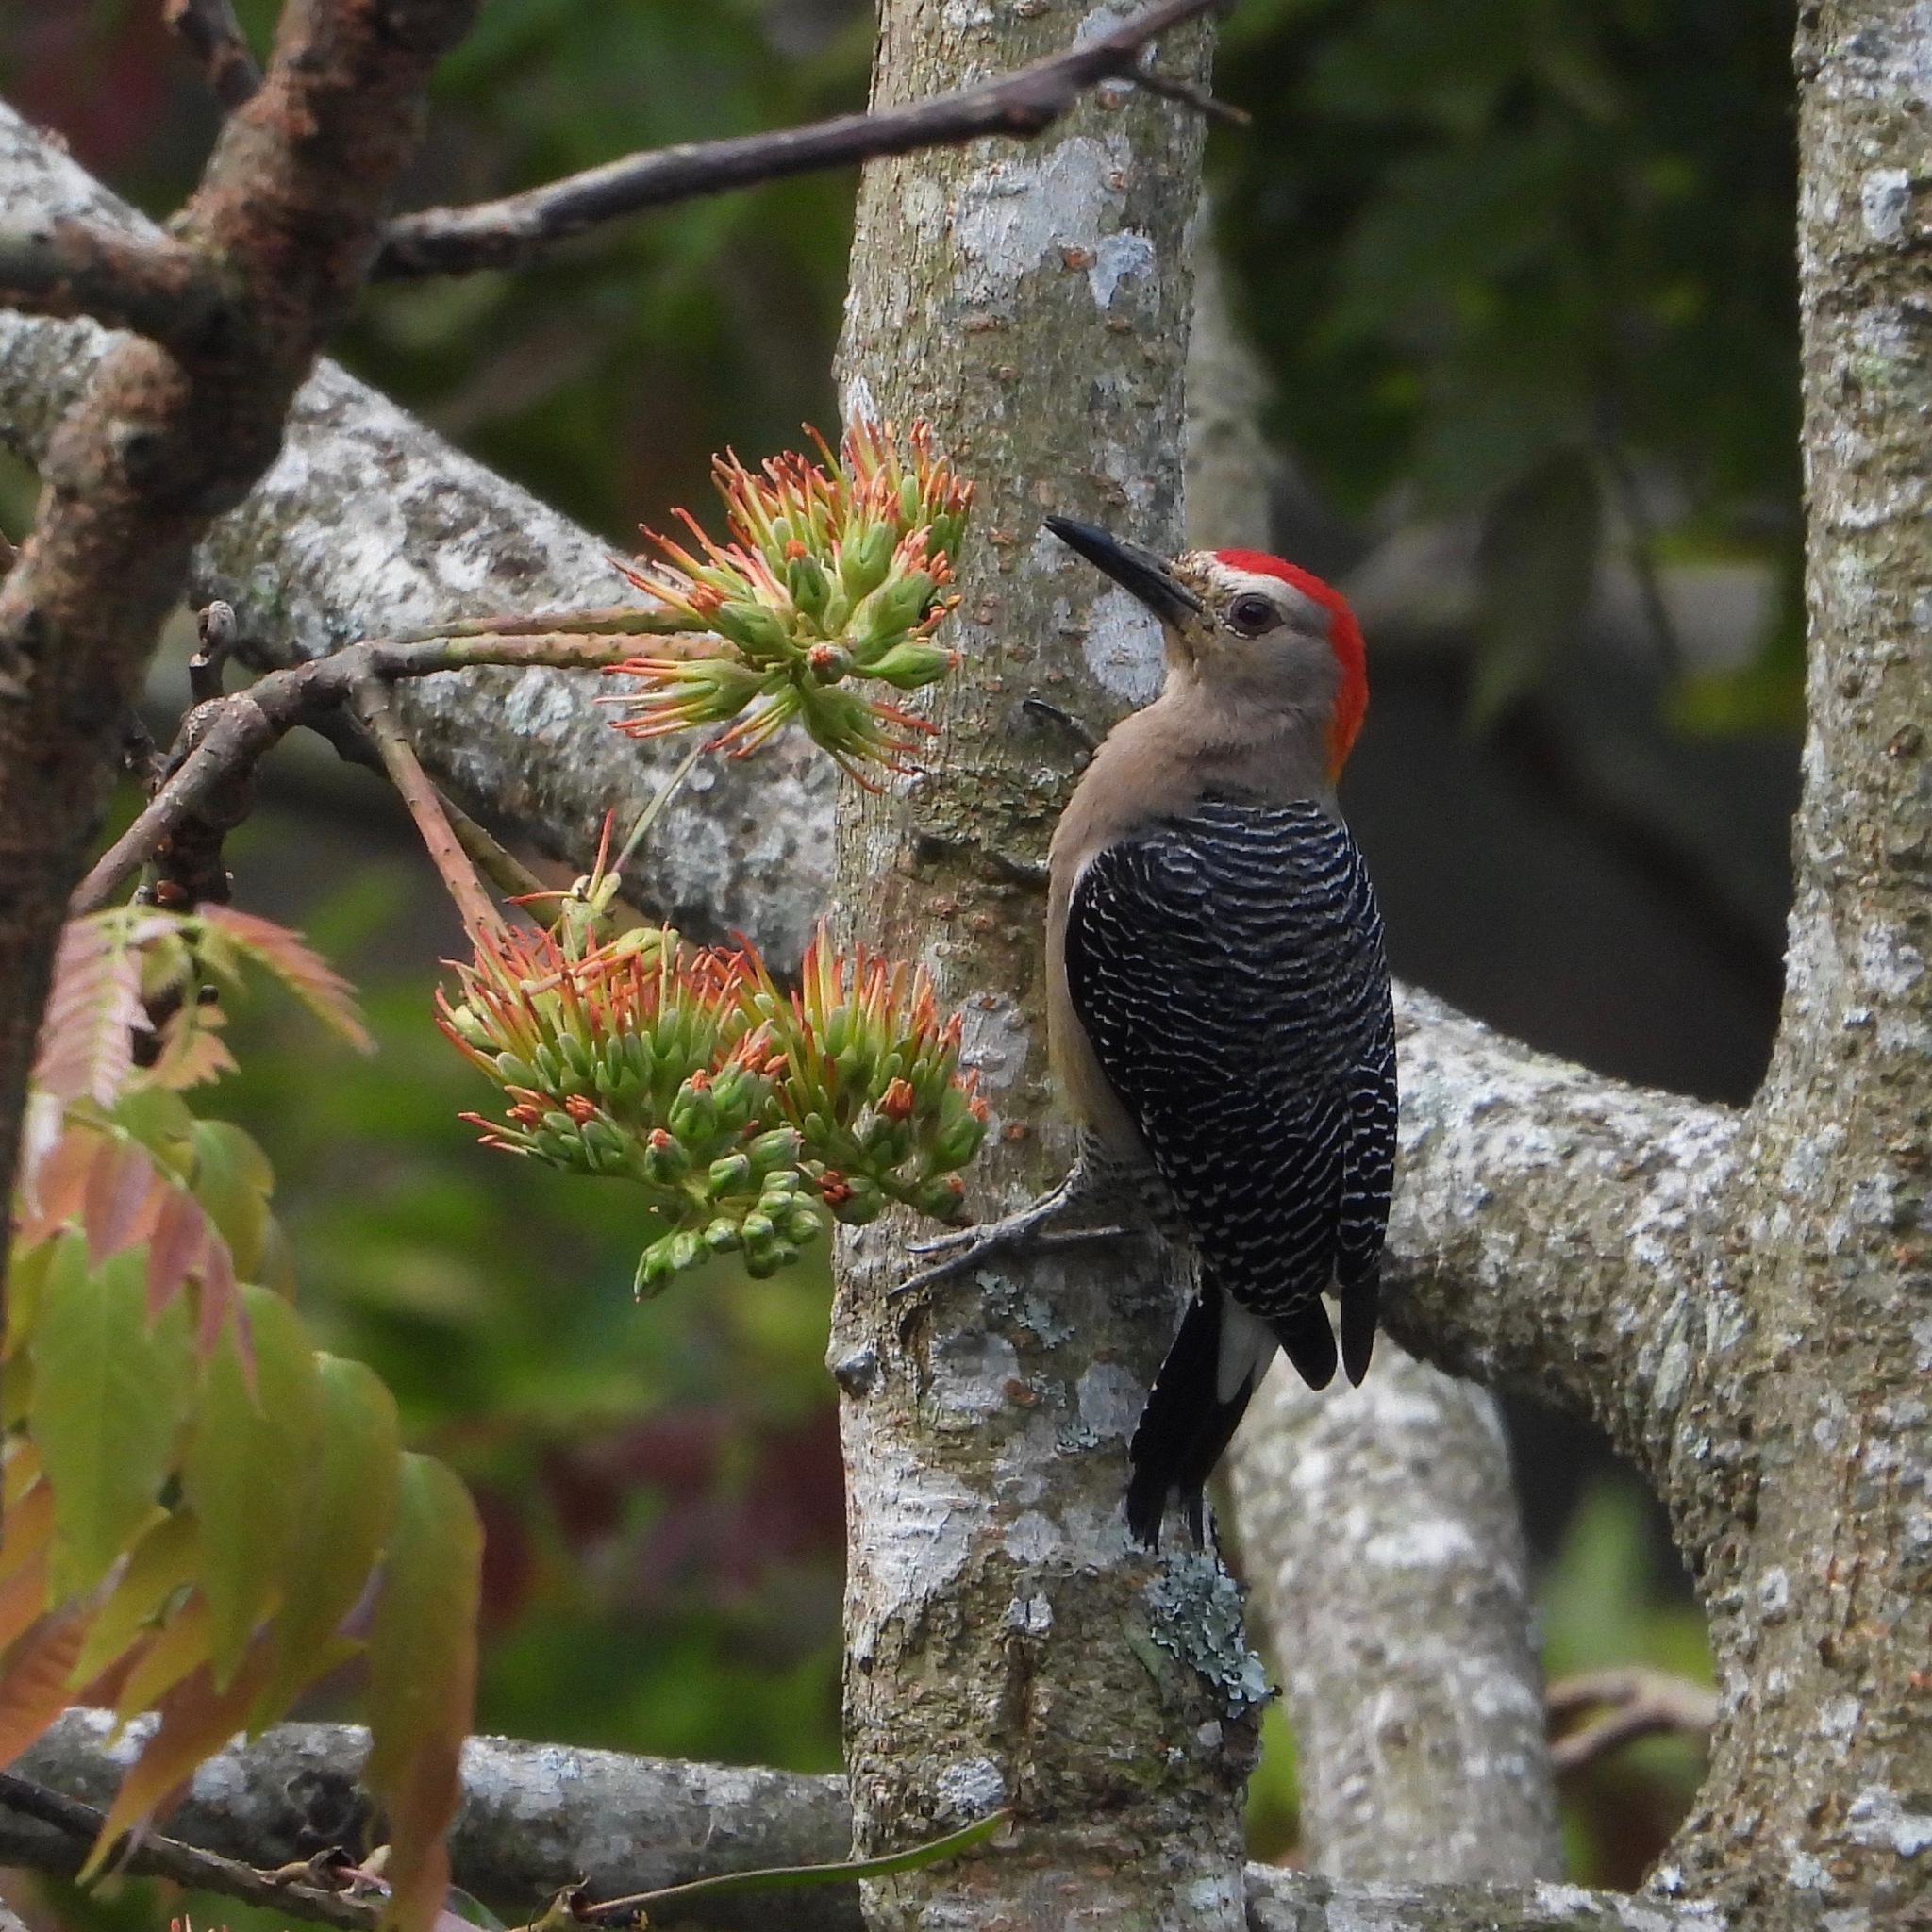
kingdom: Animalia
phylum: Chordata
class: Aves
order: Piciformes
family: Picidae
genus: Melanerpes
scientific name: Melanerpes santacruzi
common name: Velasquez's woodpecker
